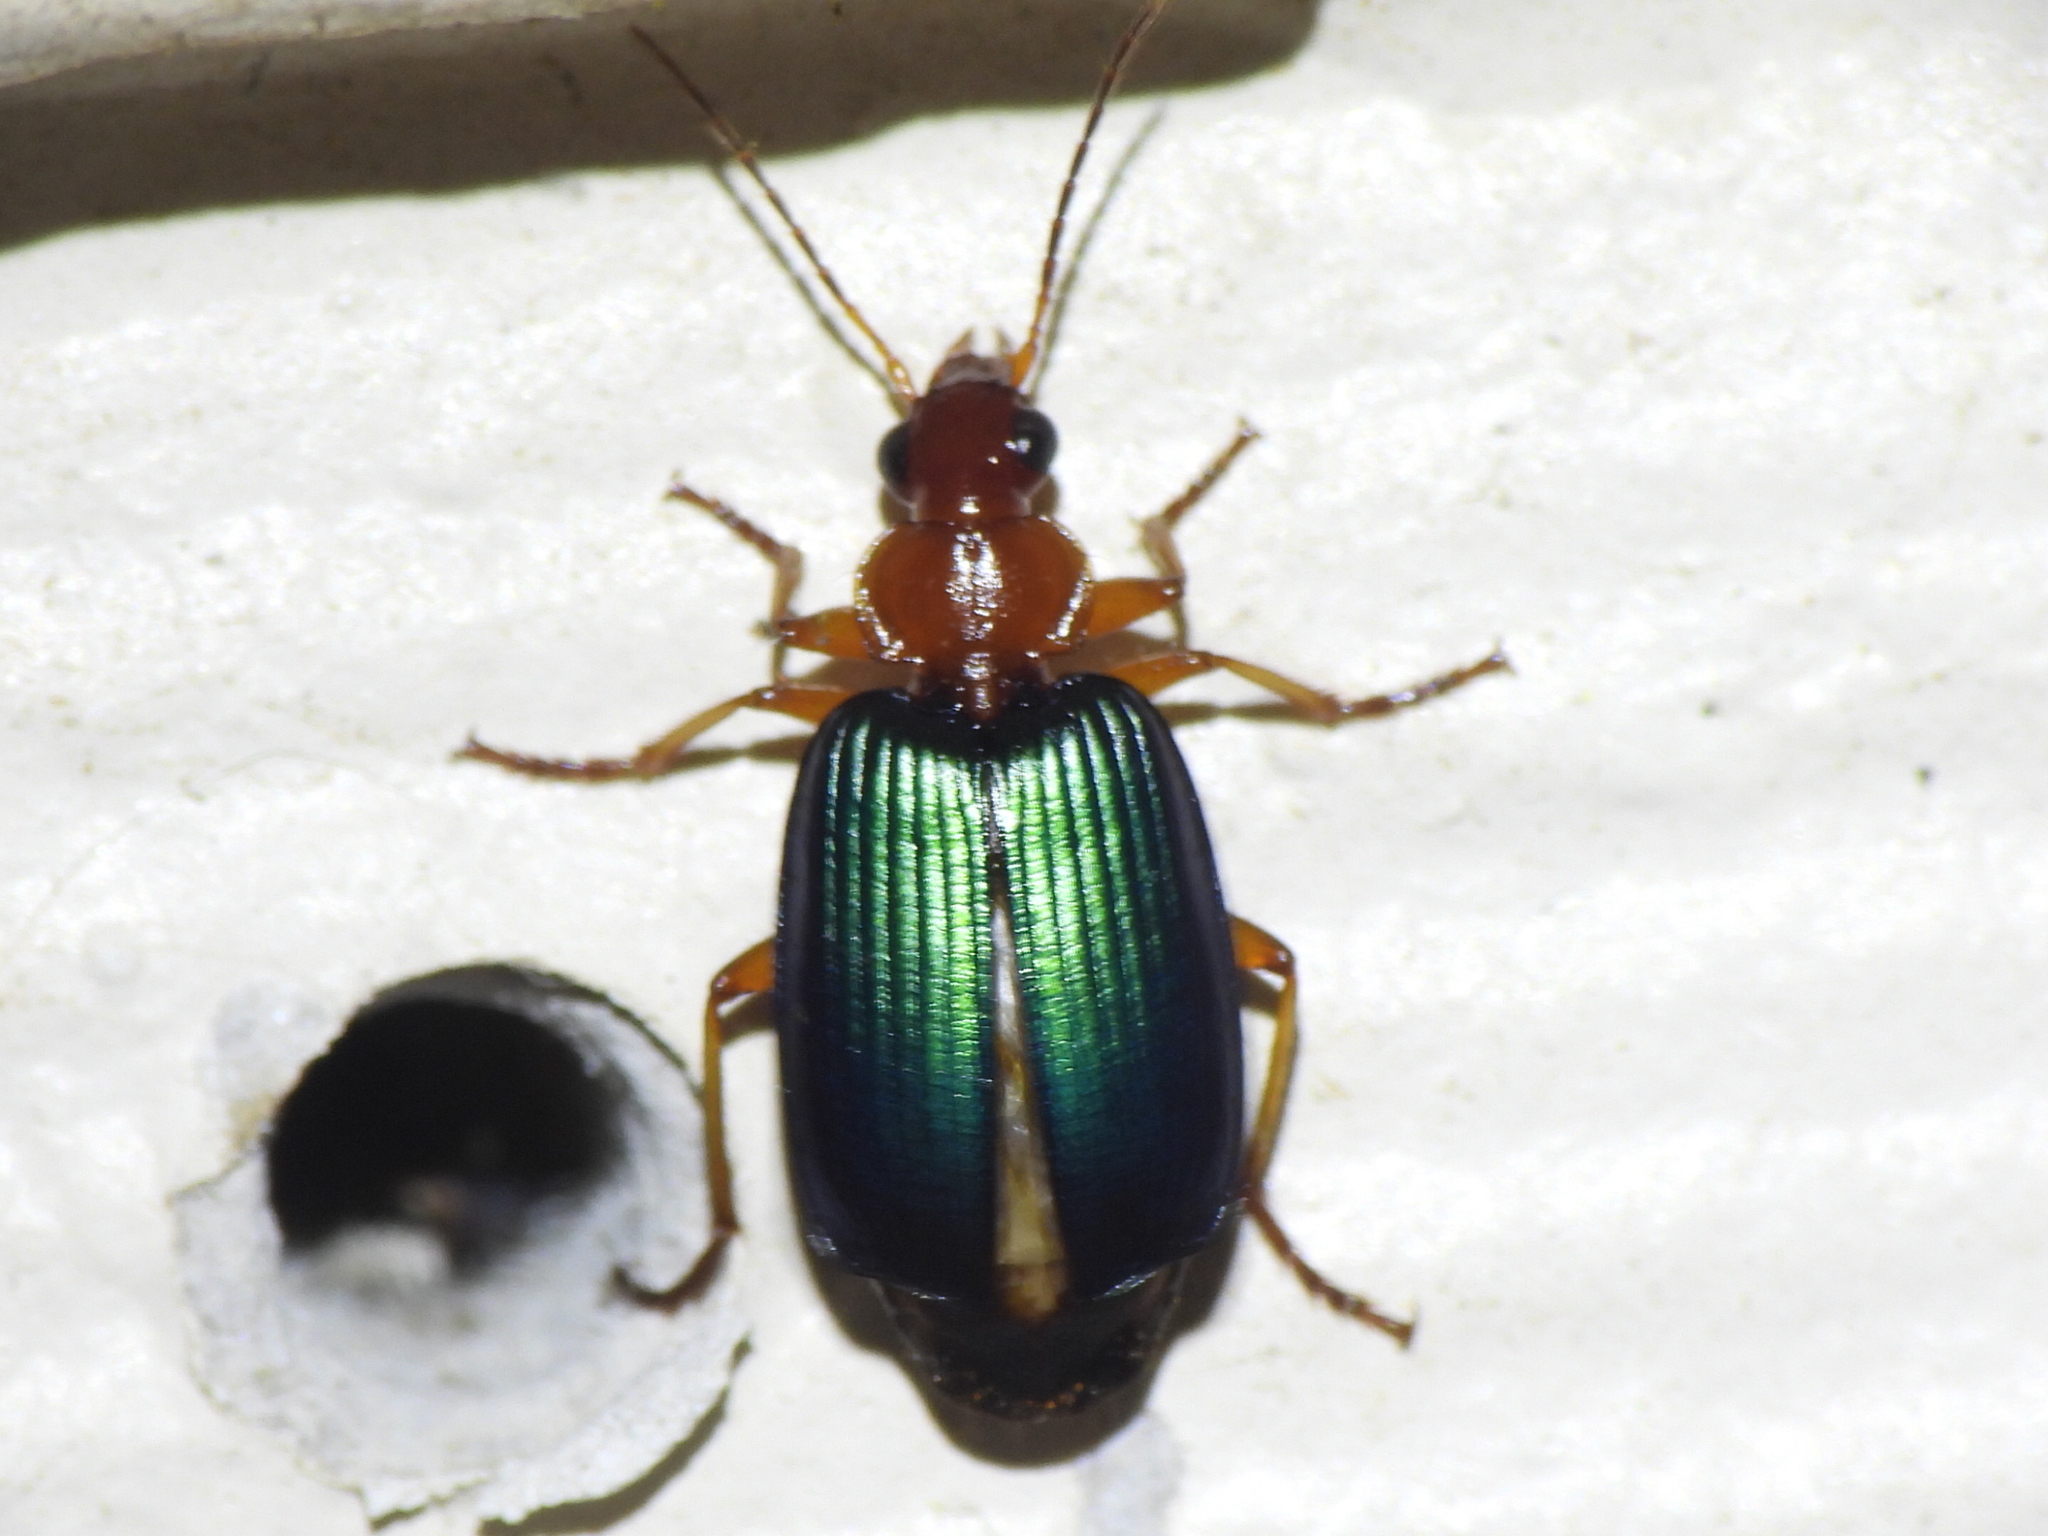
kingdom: Animalia
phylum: Arthropoda
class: Insecta
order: Coleoptera
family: Carabidae
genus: Lebia
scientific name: Lebia grandis
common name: Large foliage ground beetle
